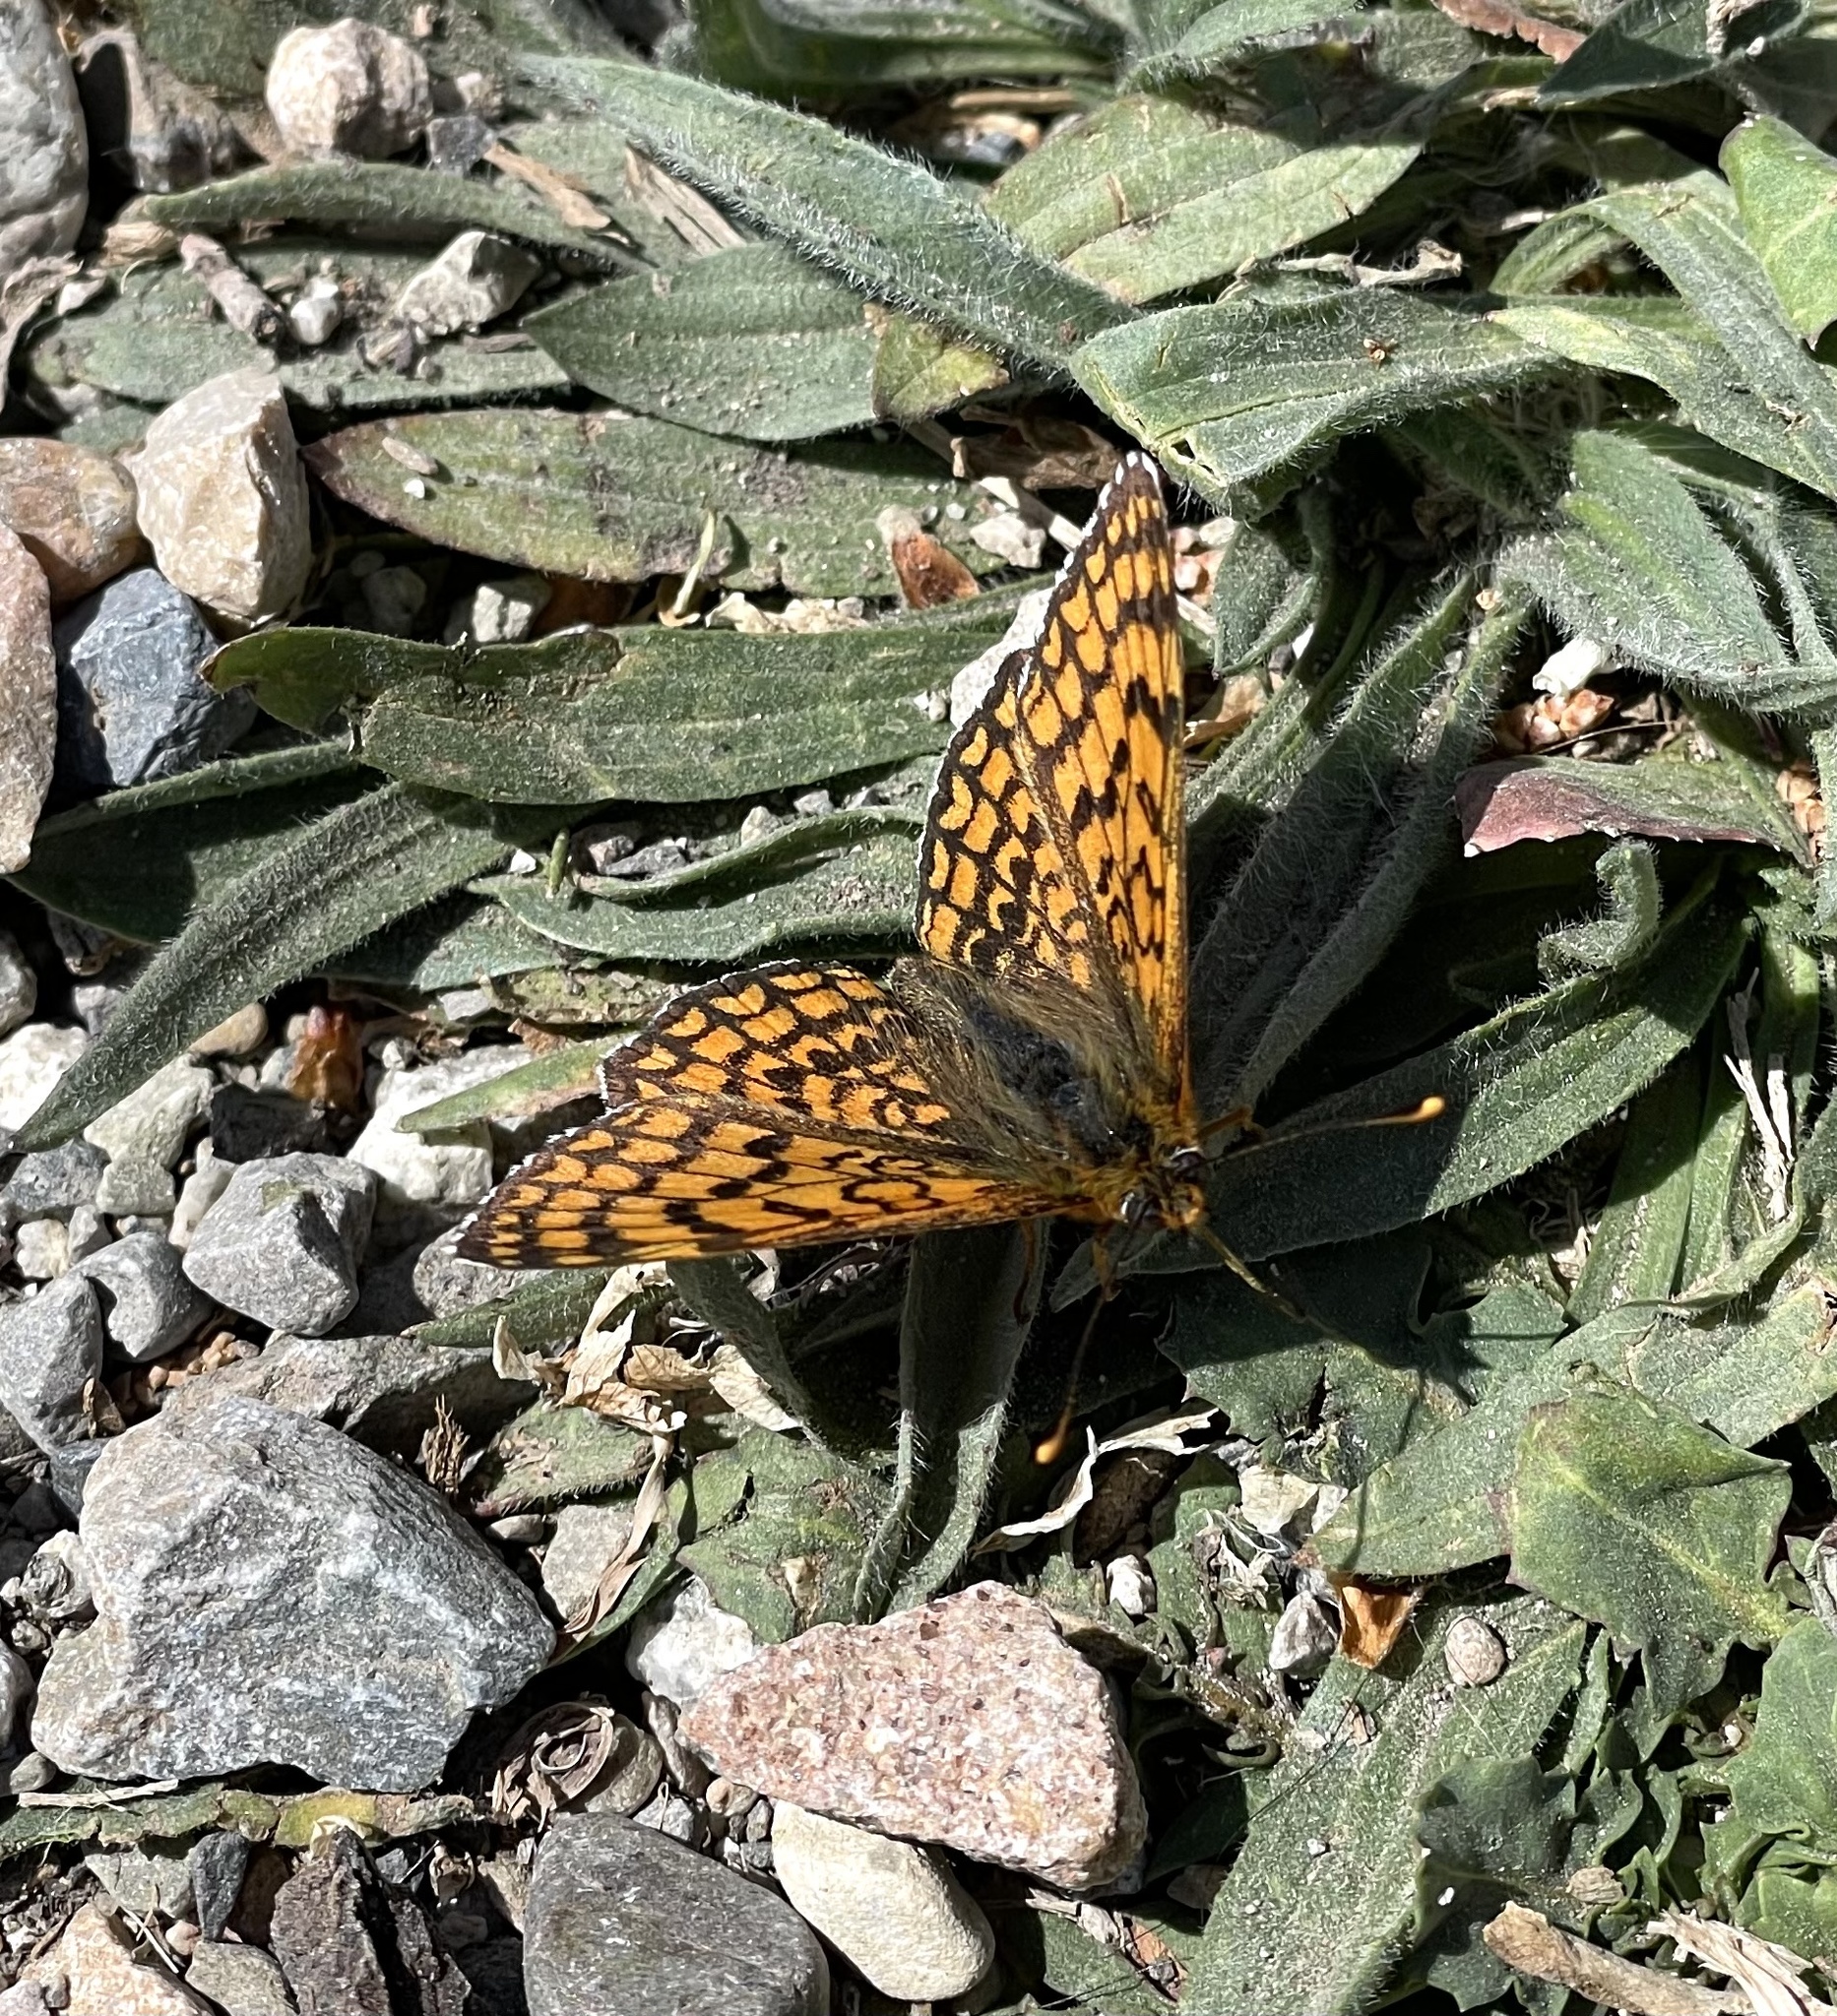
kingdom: Animalia
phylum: Arthropoda
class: Insecta
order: Lepidoptera
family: Nymphalidae
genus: Melitaea
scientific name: Melitaea deione
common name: Provençal fritillary
